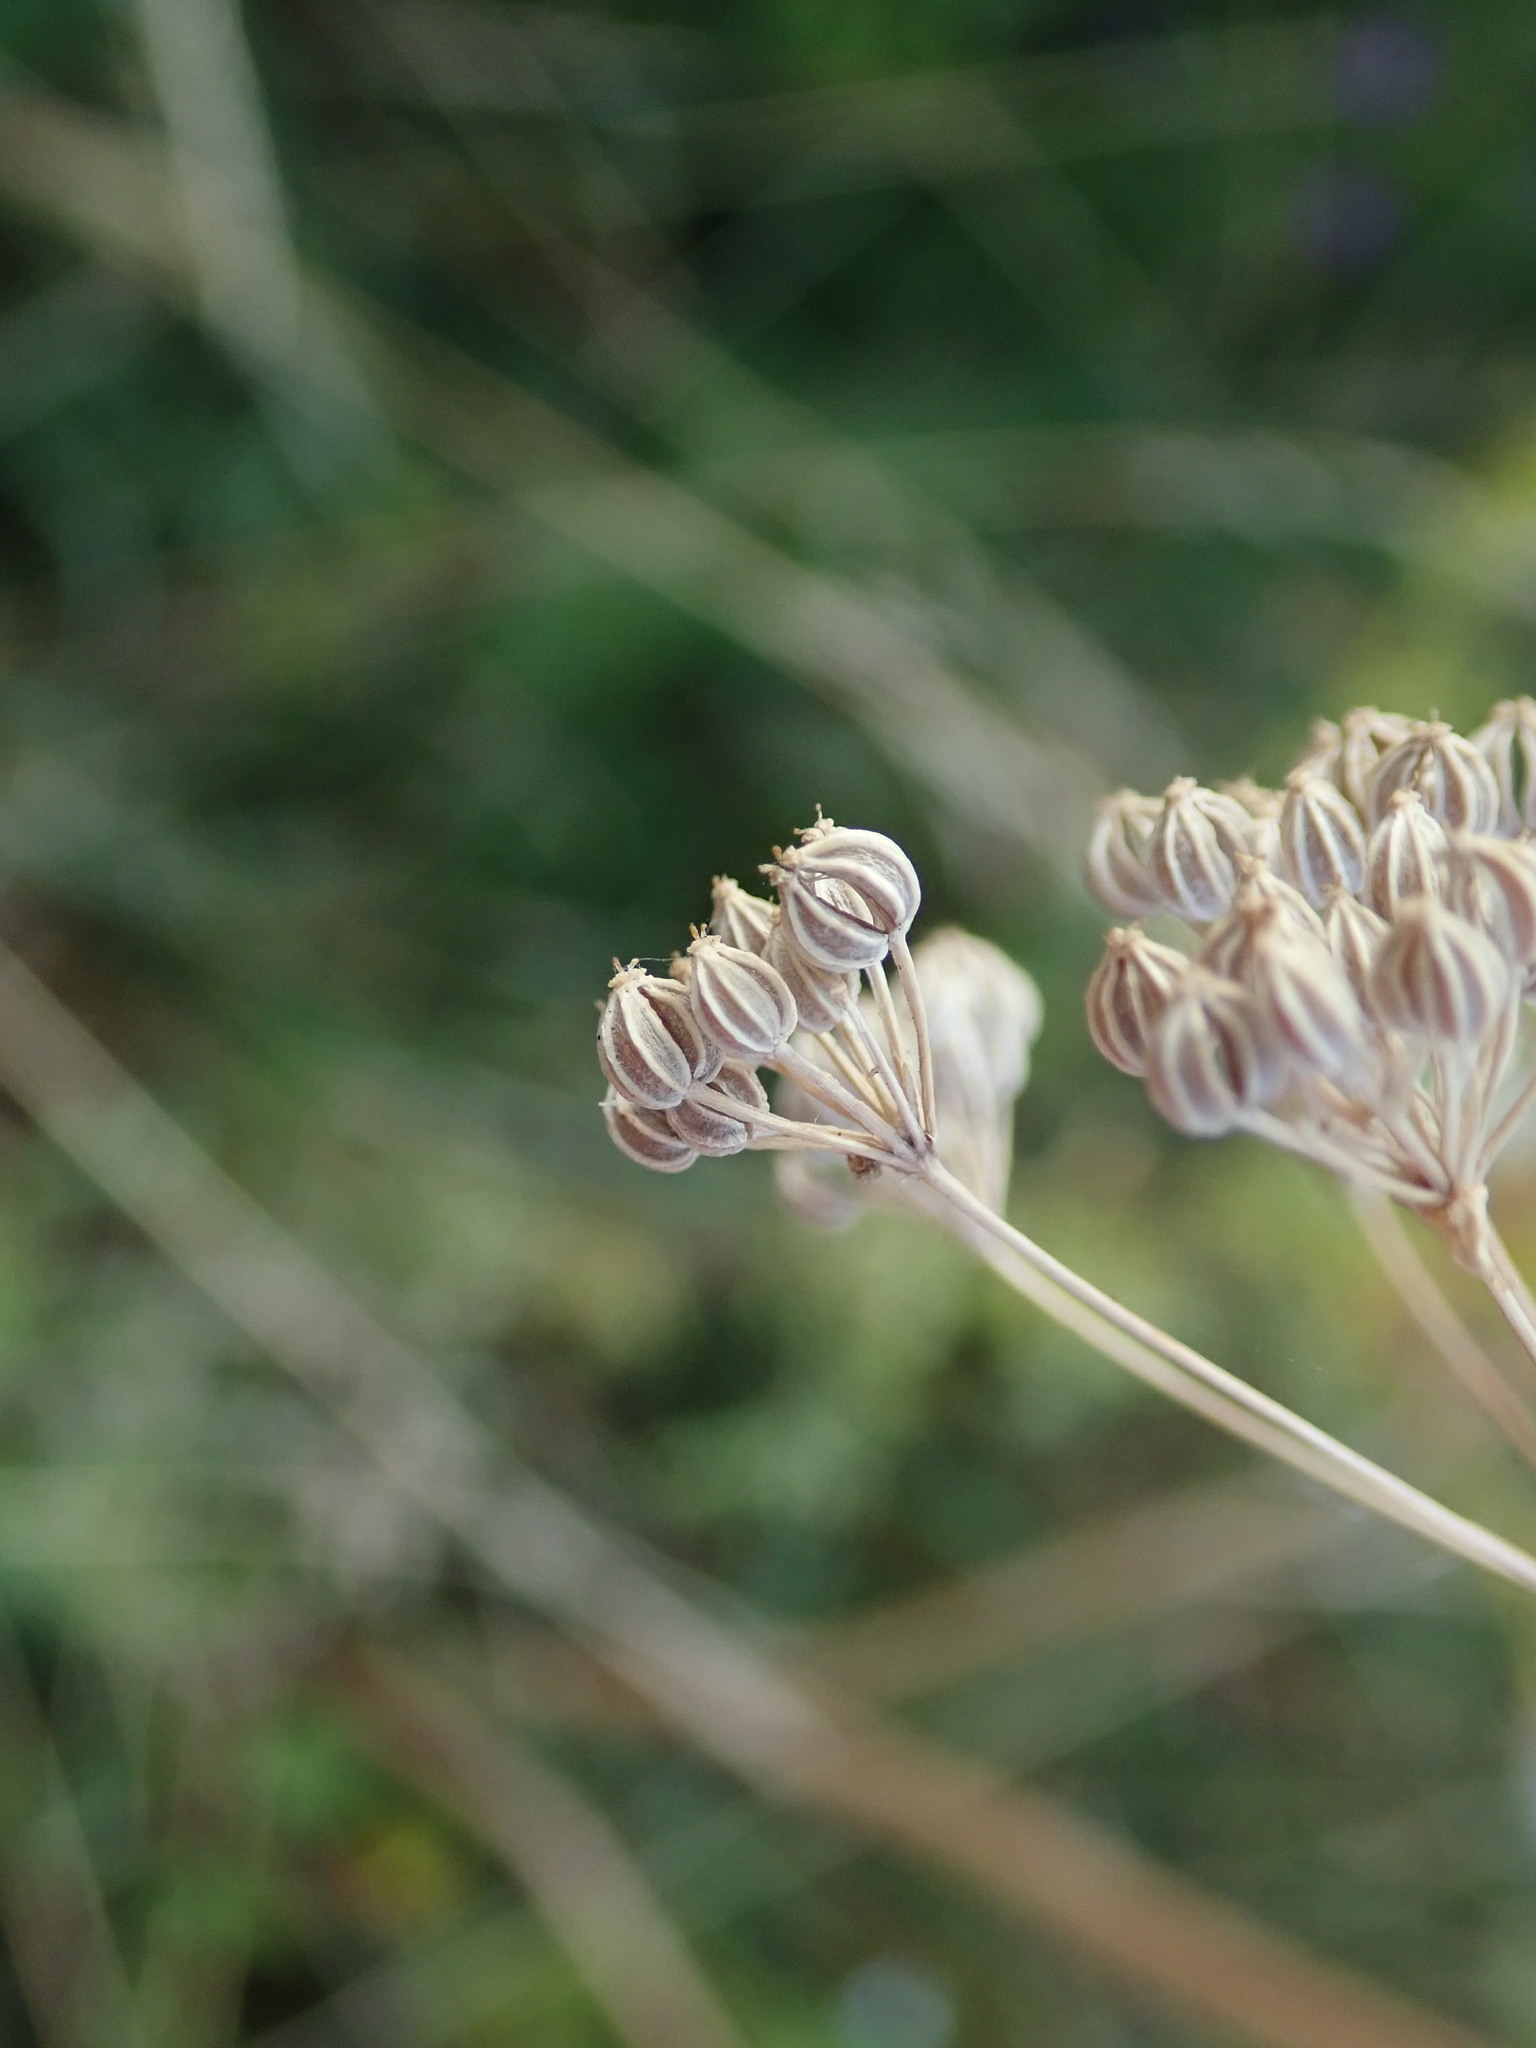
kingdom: Plantae
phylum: Tracheophyta
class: Magnoliopsida
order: Apiales
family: Apiaceae
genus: Conium
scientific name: Conium maculatum
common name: Hemlock
